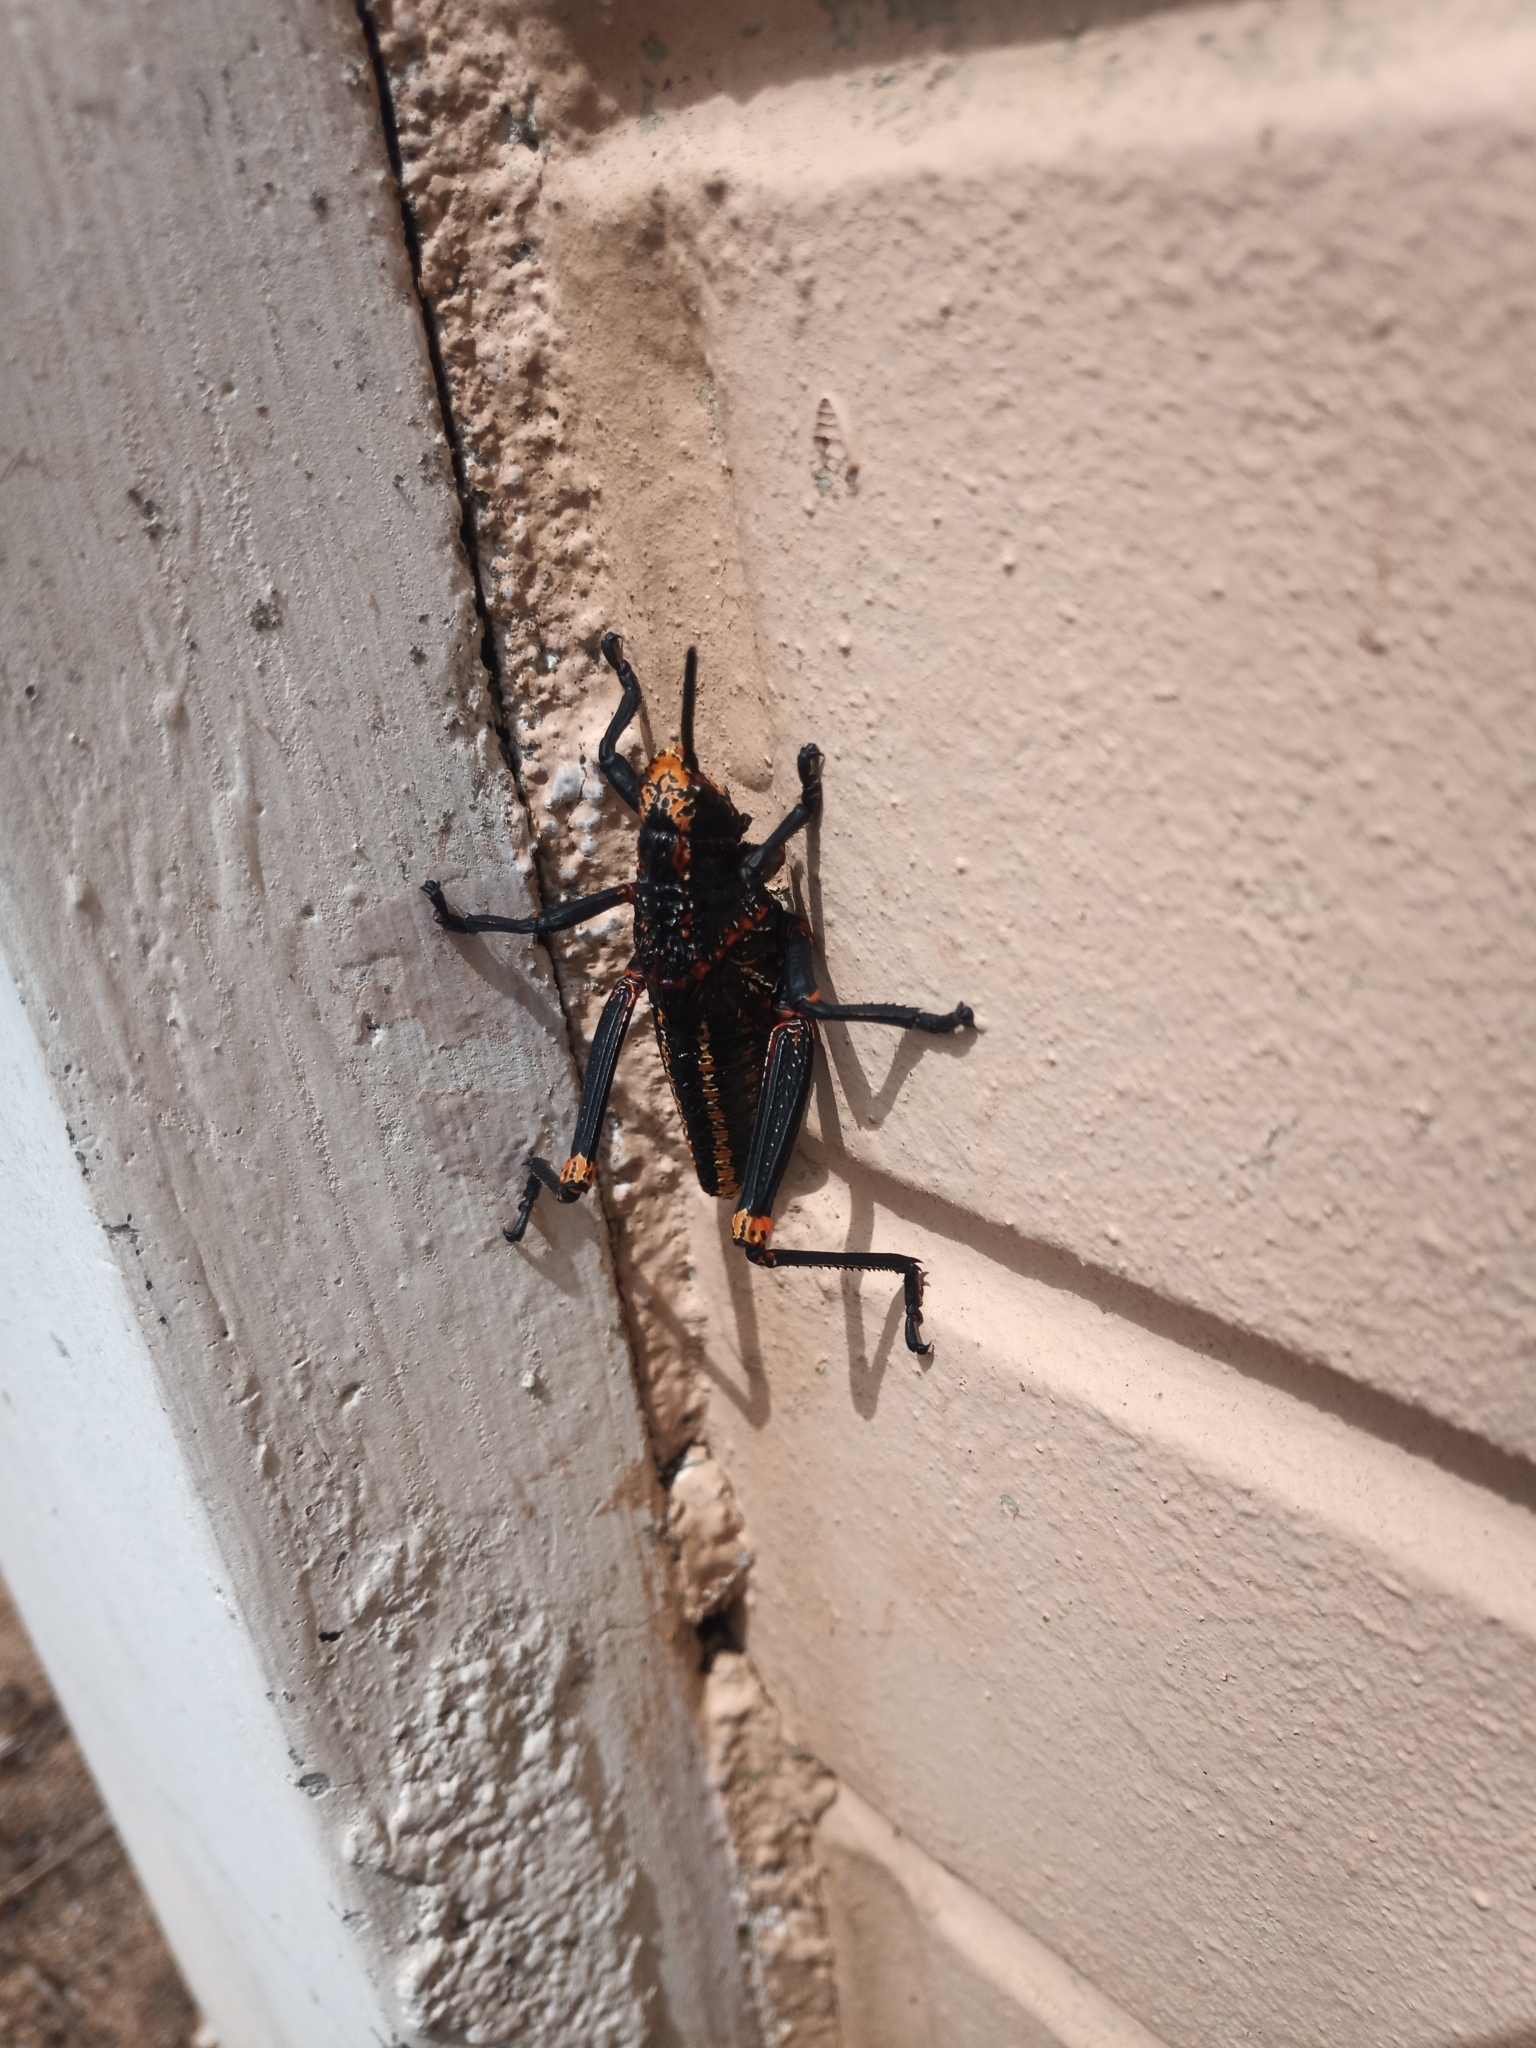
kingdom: Animalia
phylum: Arthropoda
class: Insecta
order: Orthoptera
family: Pyrgomorphidae
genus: Dictyophorus
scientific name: Dictyophorus spumans
